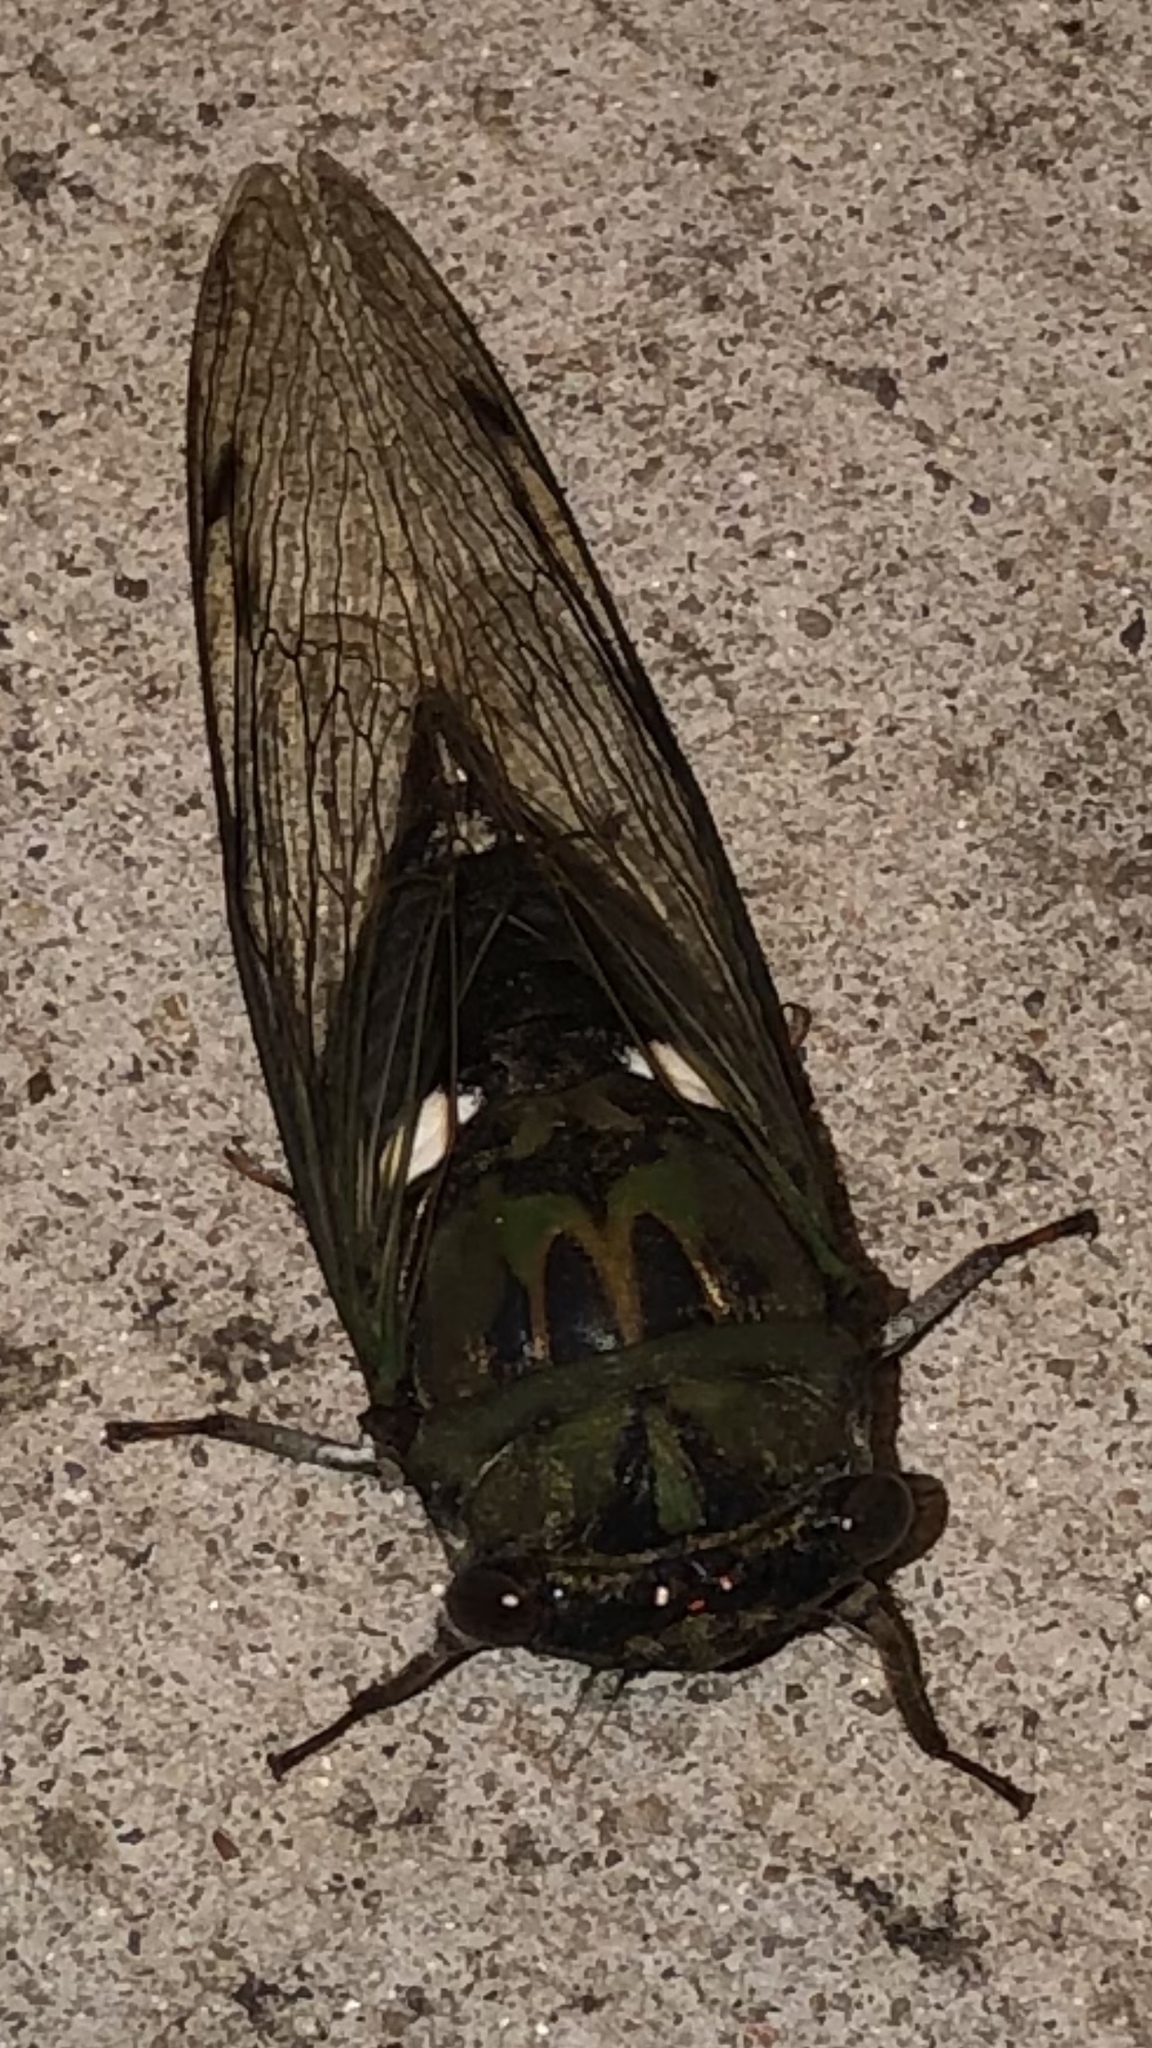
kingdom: Animalia
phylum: Arthropoda
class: Insecta
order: Hemiptera
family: Cicadidae
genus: Neotibicen
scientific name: Neotibicen pruinosus
